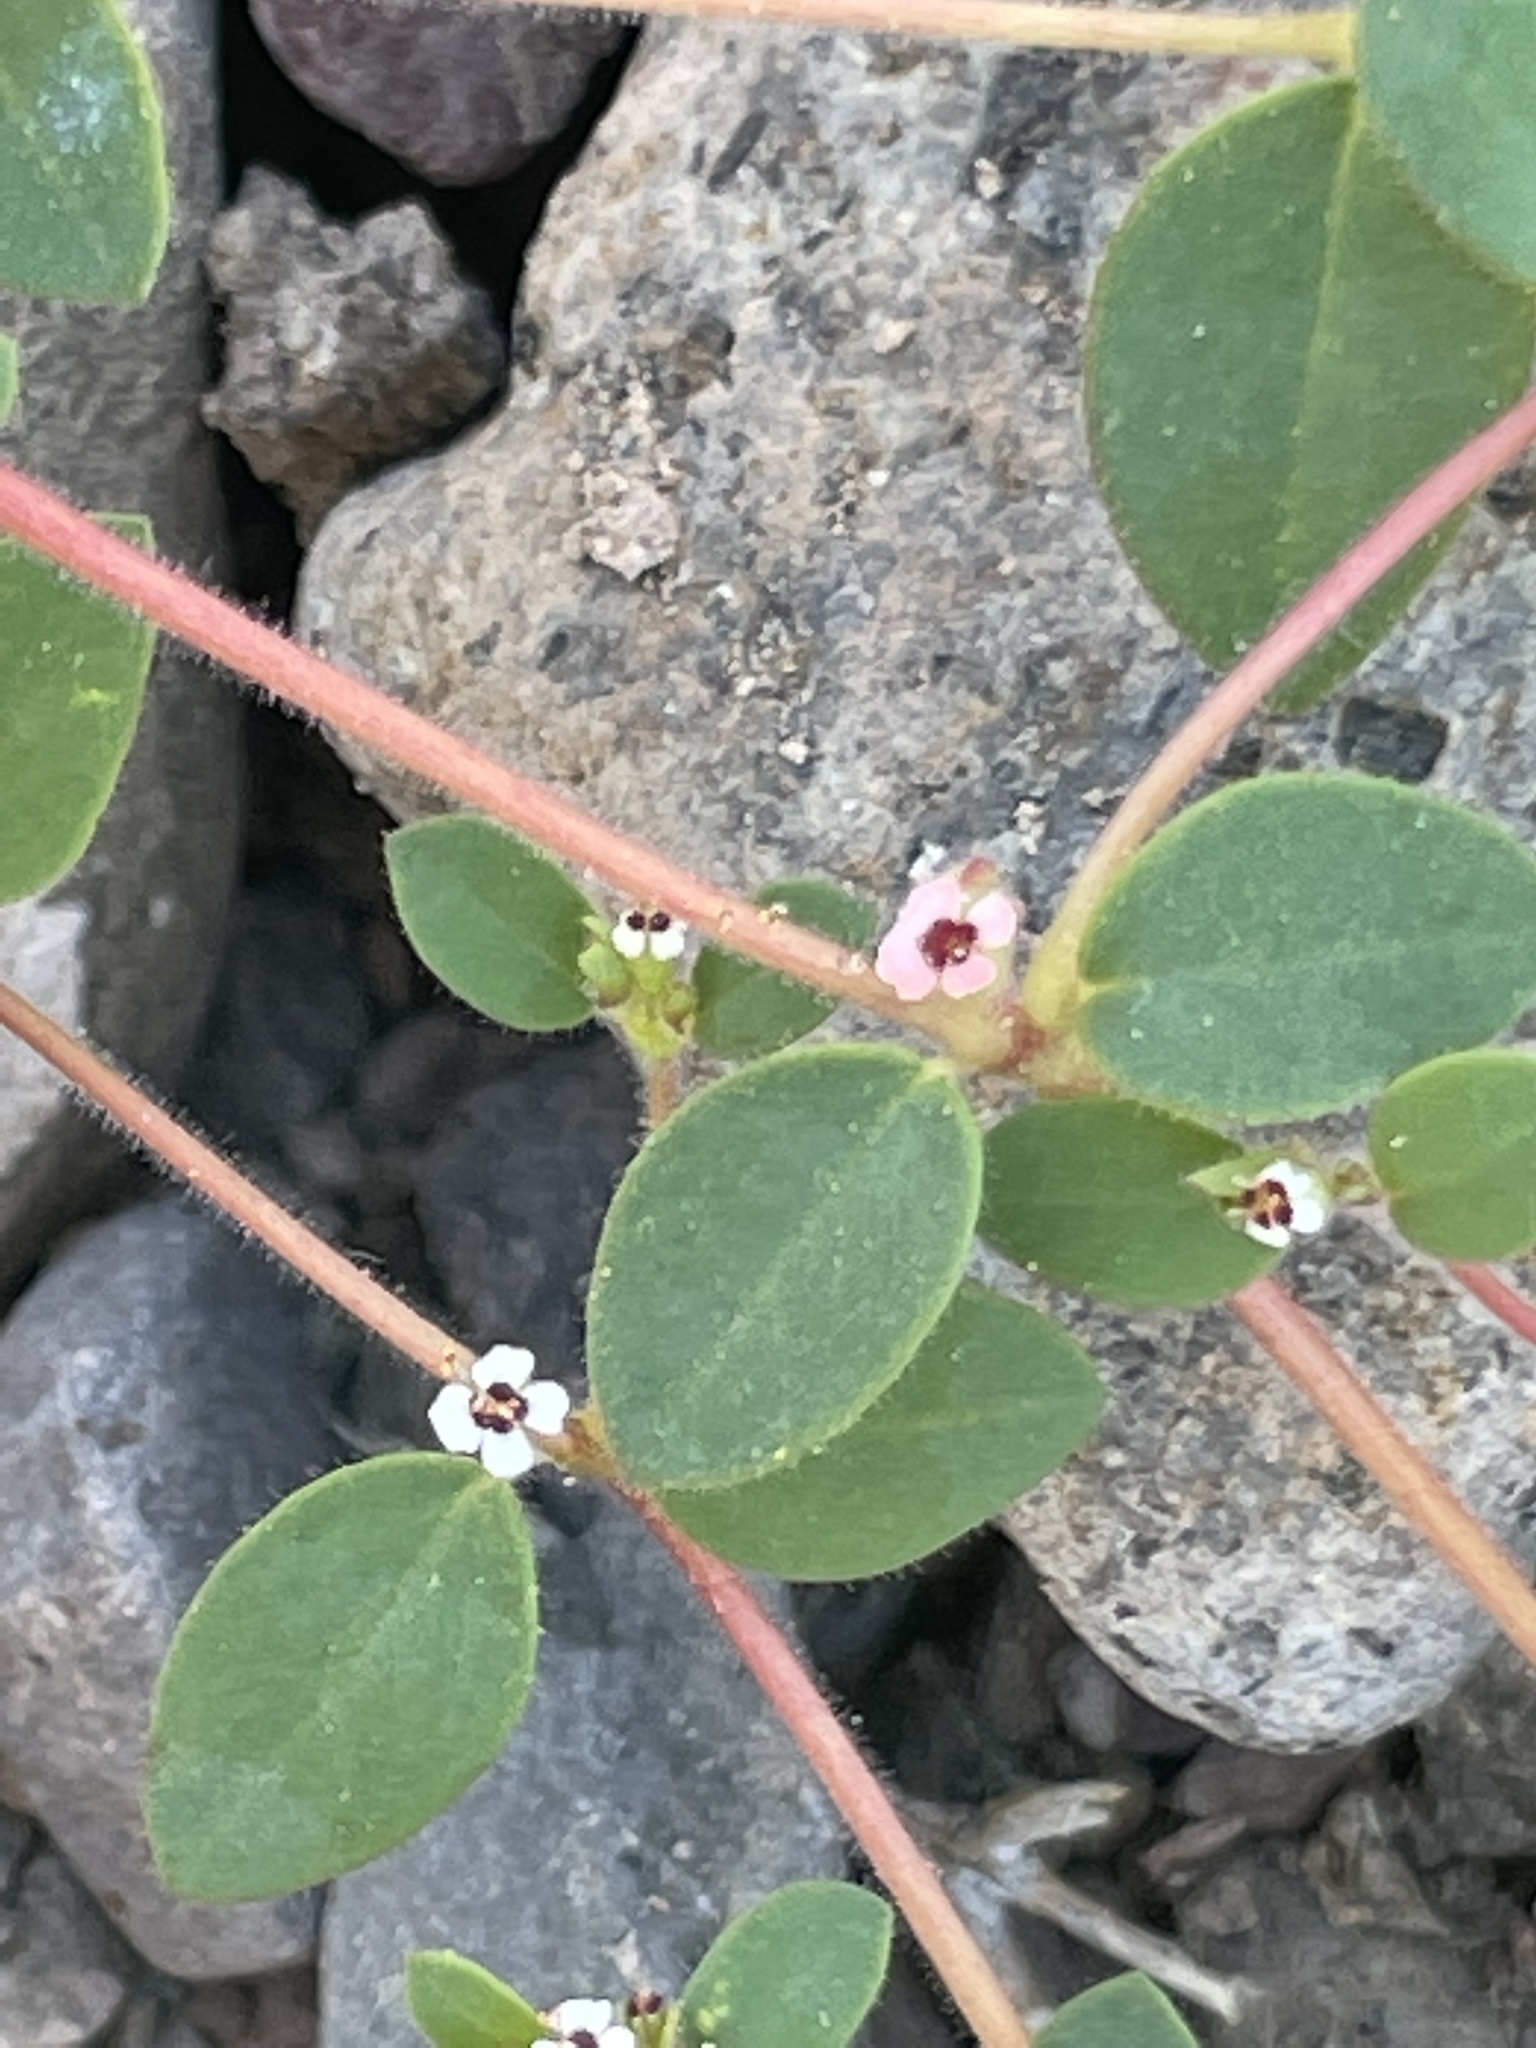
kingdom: Plantae
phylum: Tracheophyta
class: Magnoliopsida
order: Malpighiales
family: Euphorbiaceae
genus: Euphorbia
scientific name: Euphorbia arizonica
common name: Arizona spurge
